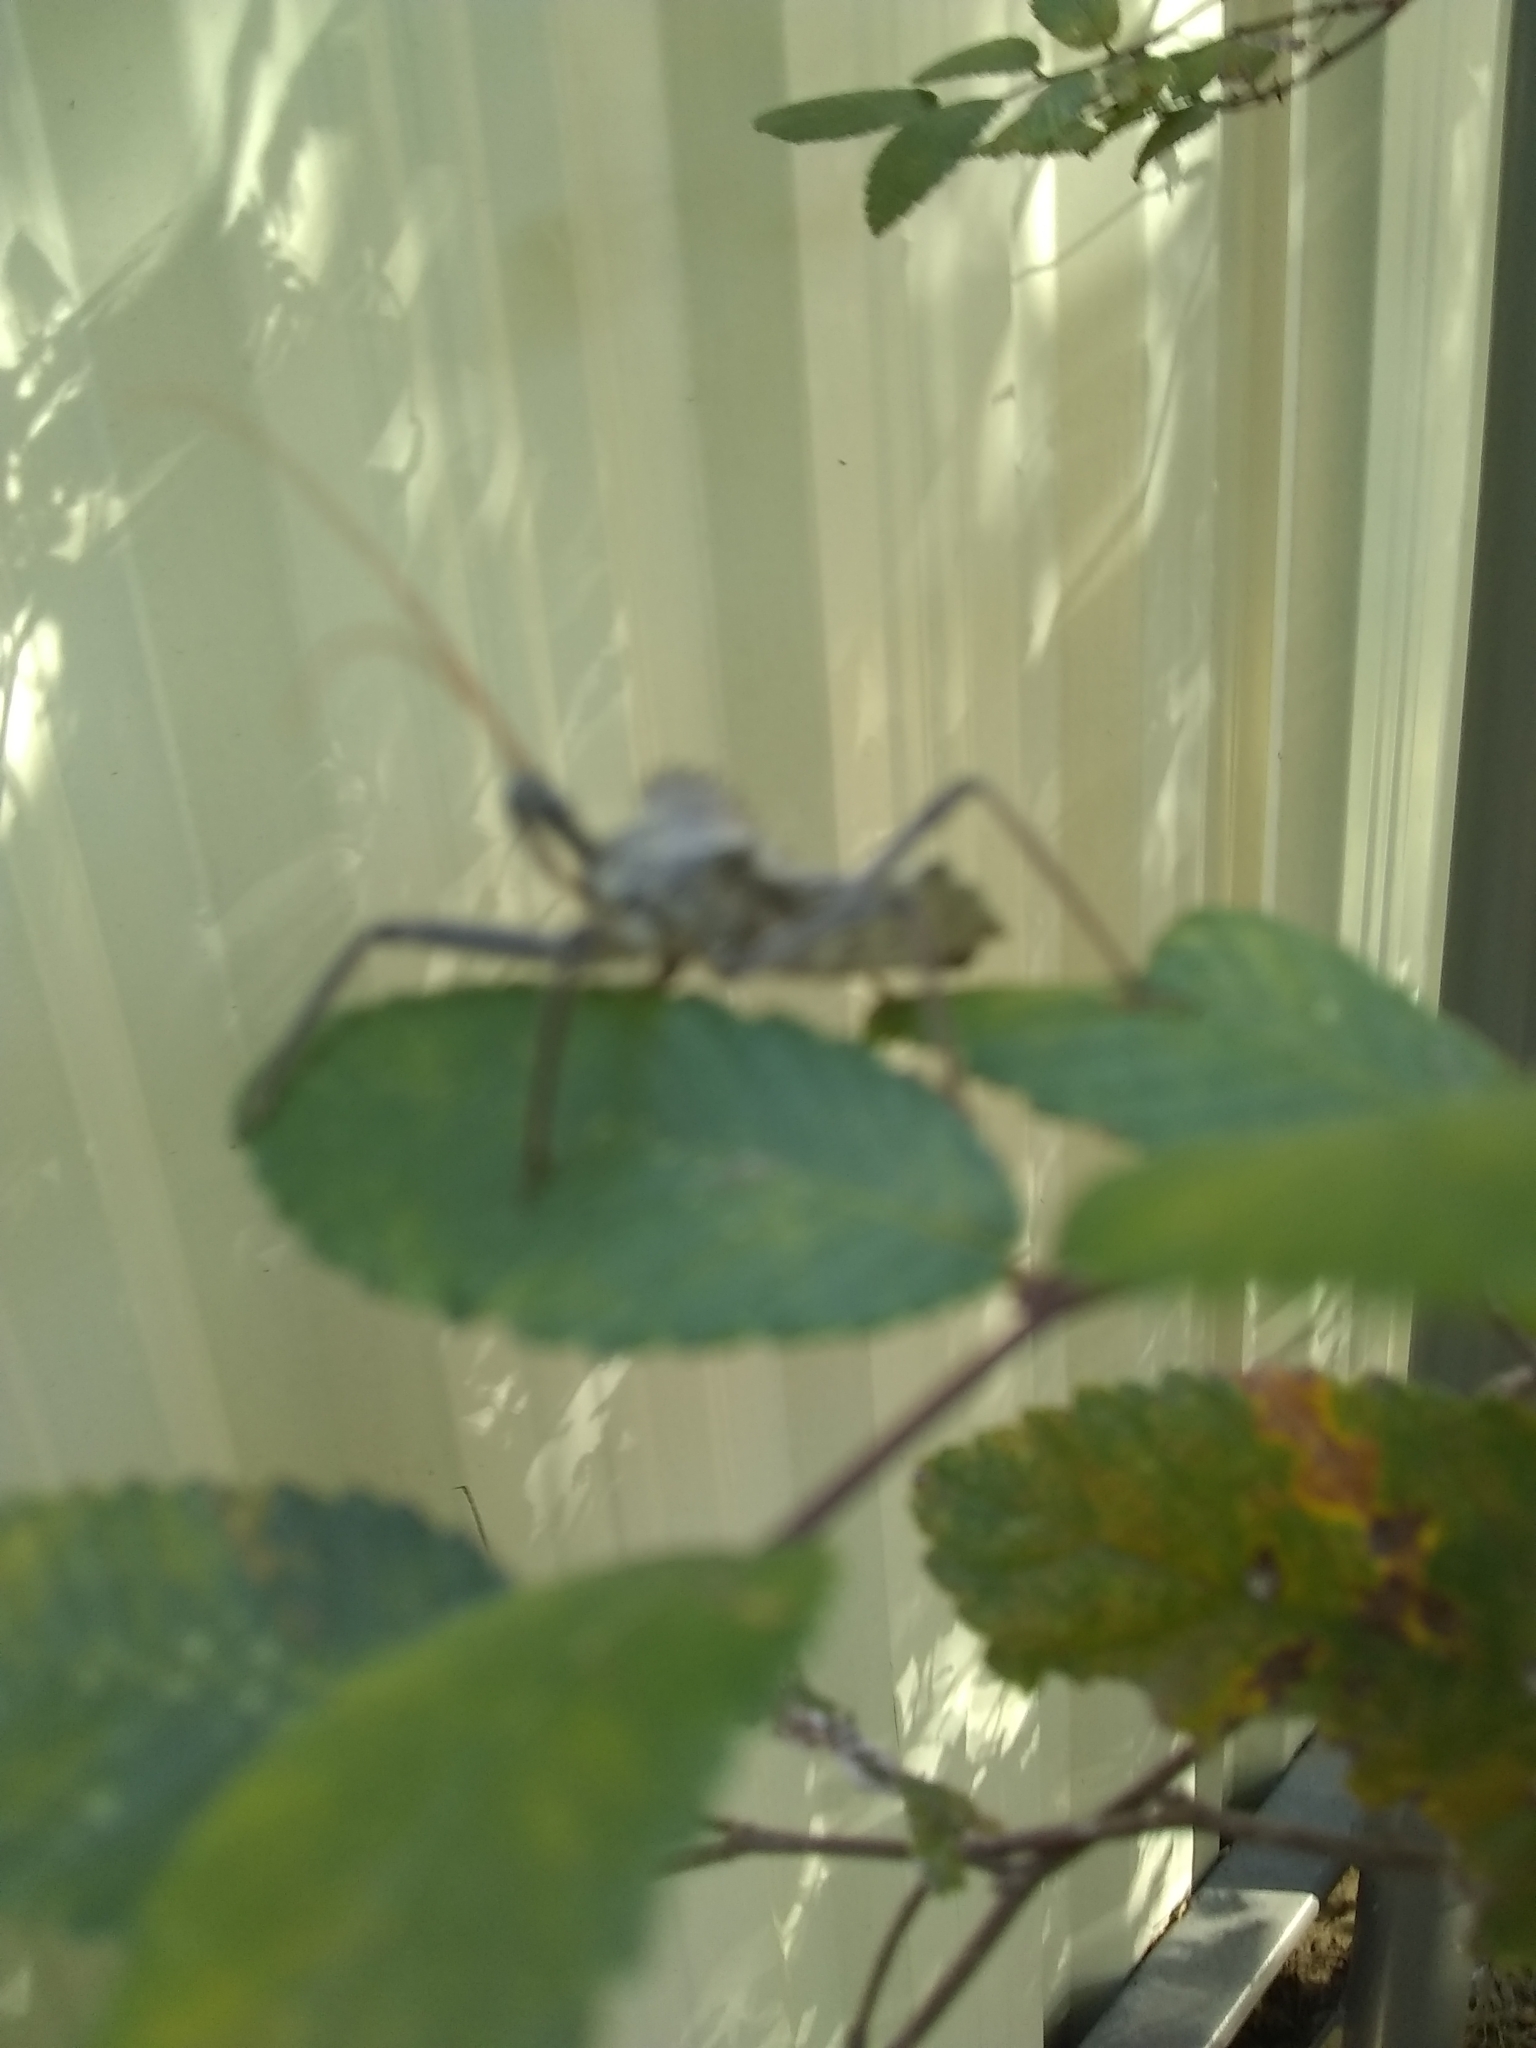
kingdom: Animalia
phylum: Arthropoda
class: Insecta
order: Hemiptera
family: Reduviidae
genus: Arilus
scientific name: Arilus cristatus
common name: North american wheel bug
